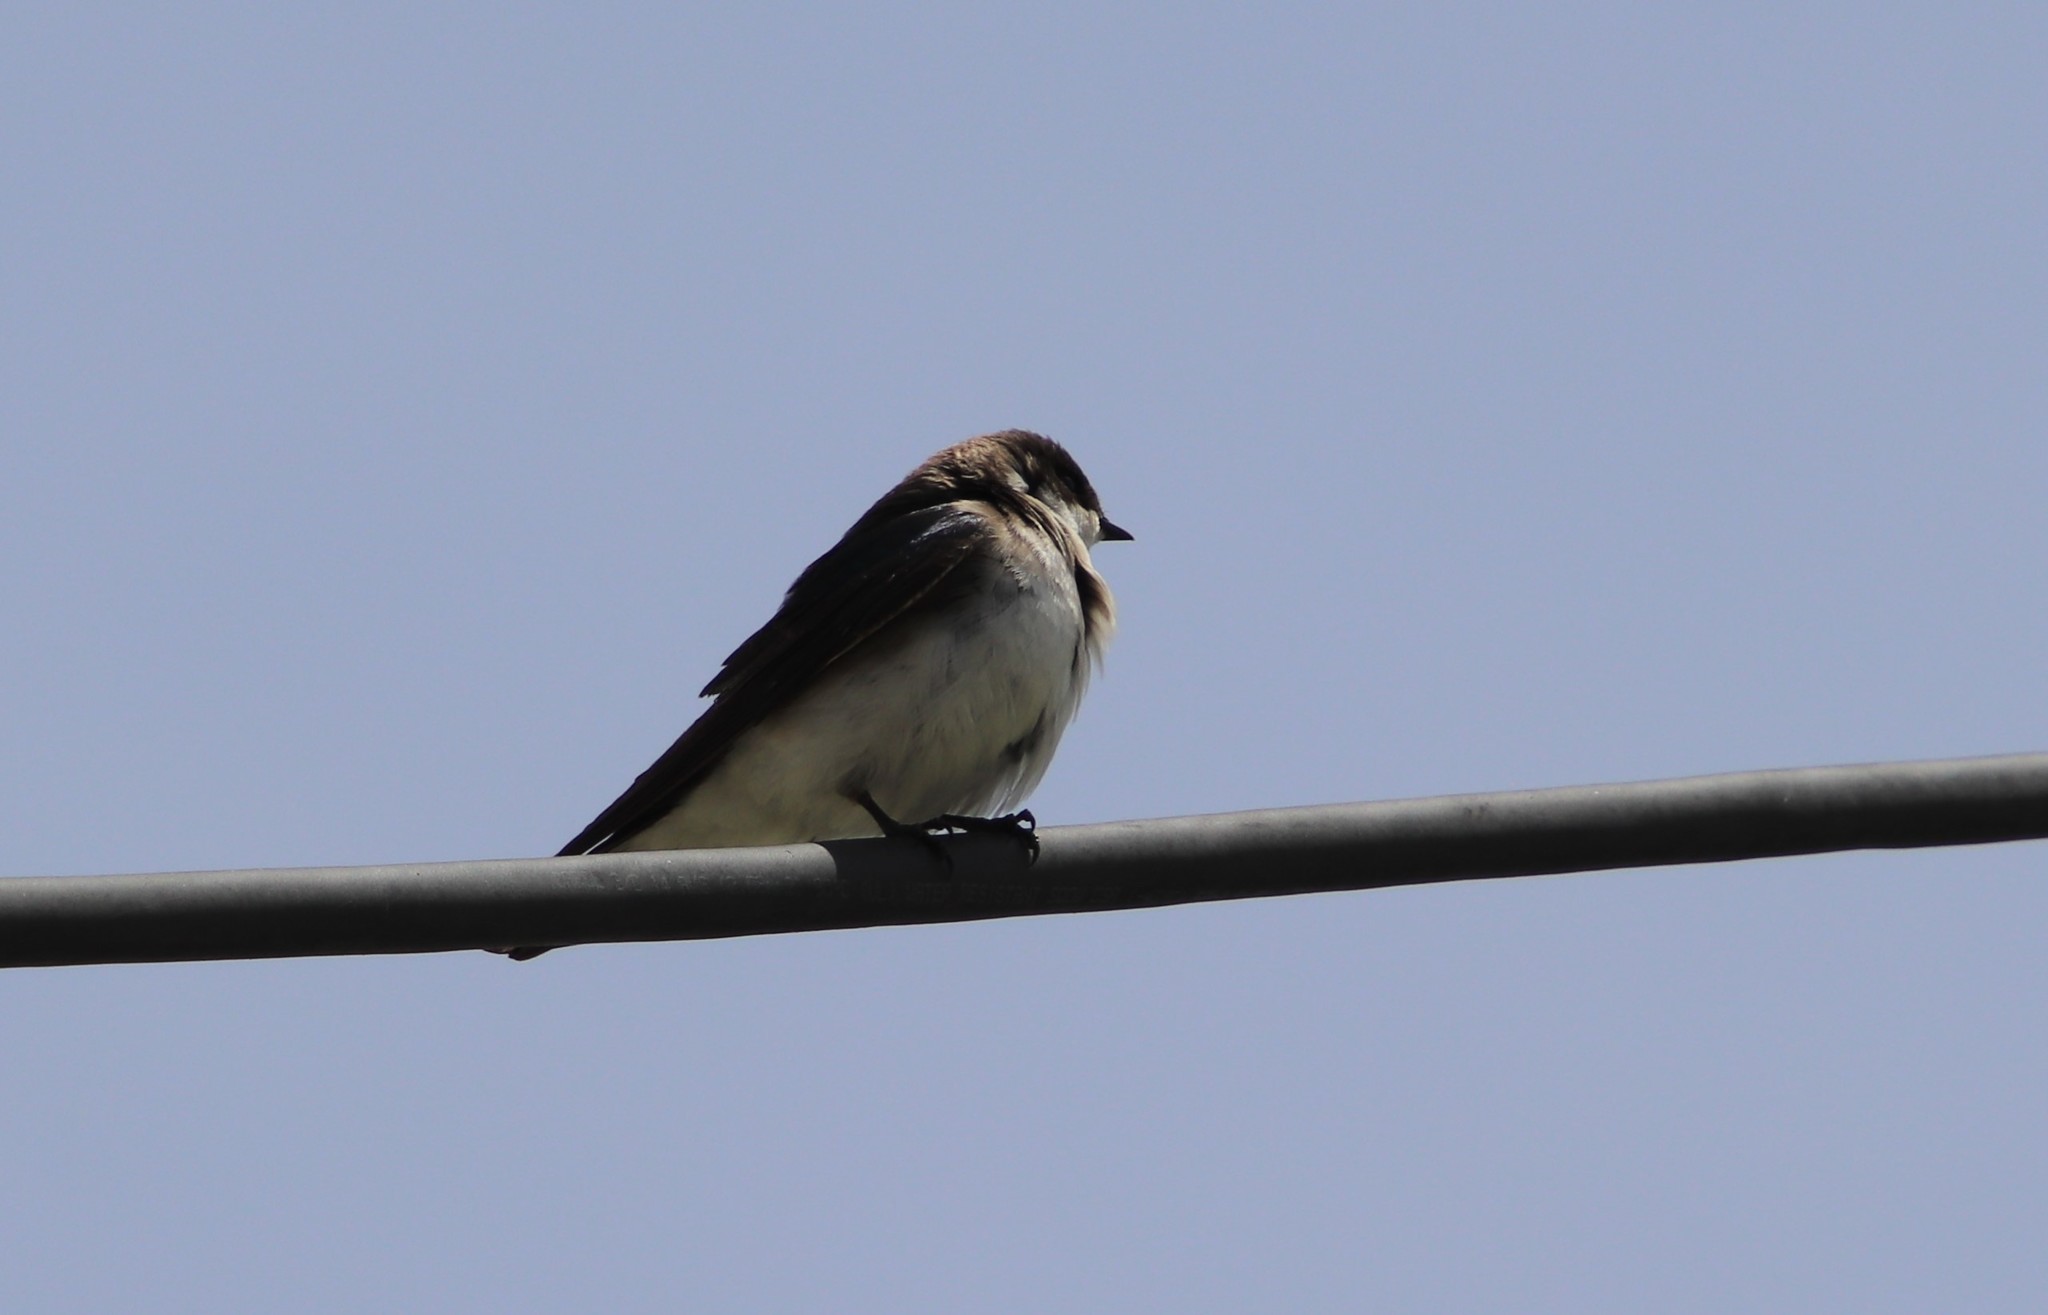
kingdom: Animalia
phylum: Chordata
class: Aves
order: Passeriformes
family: Hirundinidae
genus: Tachycineta
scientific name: Tachycineta bicolor
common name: Tree swallow
